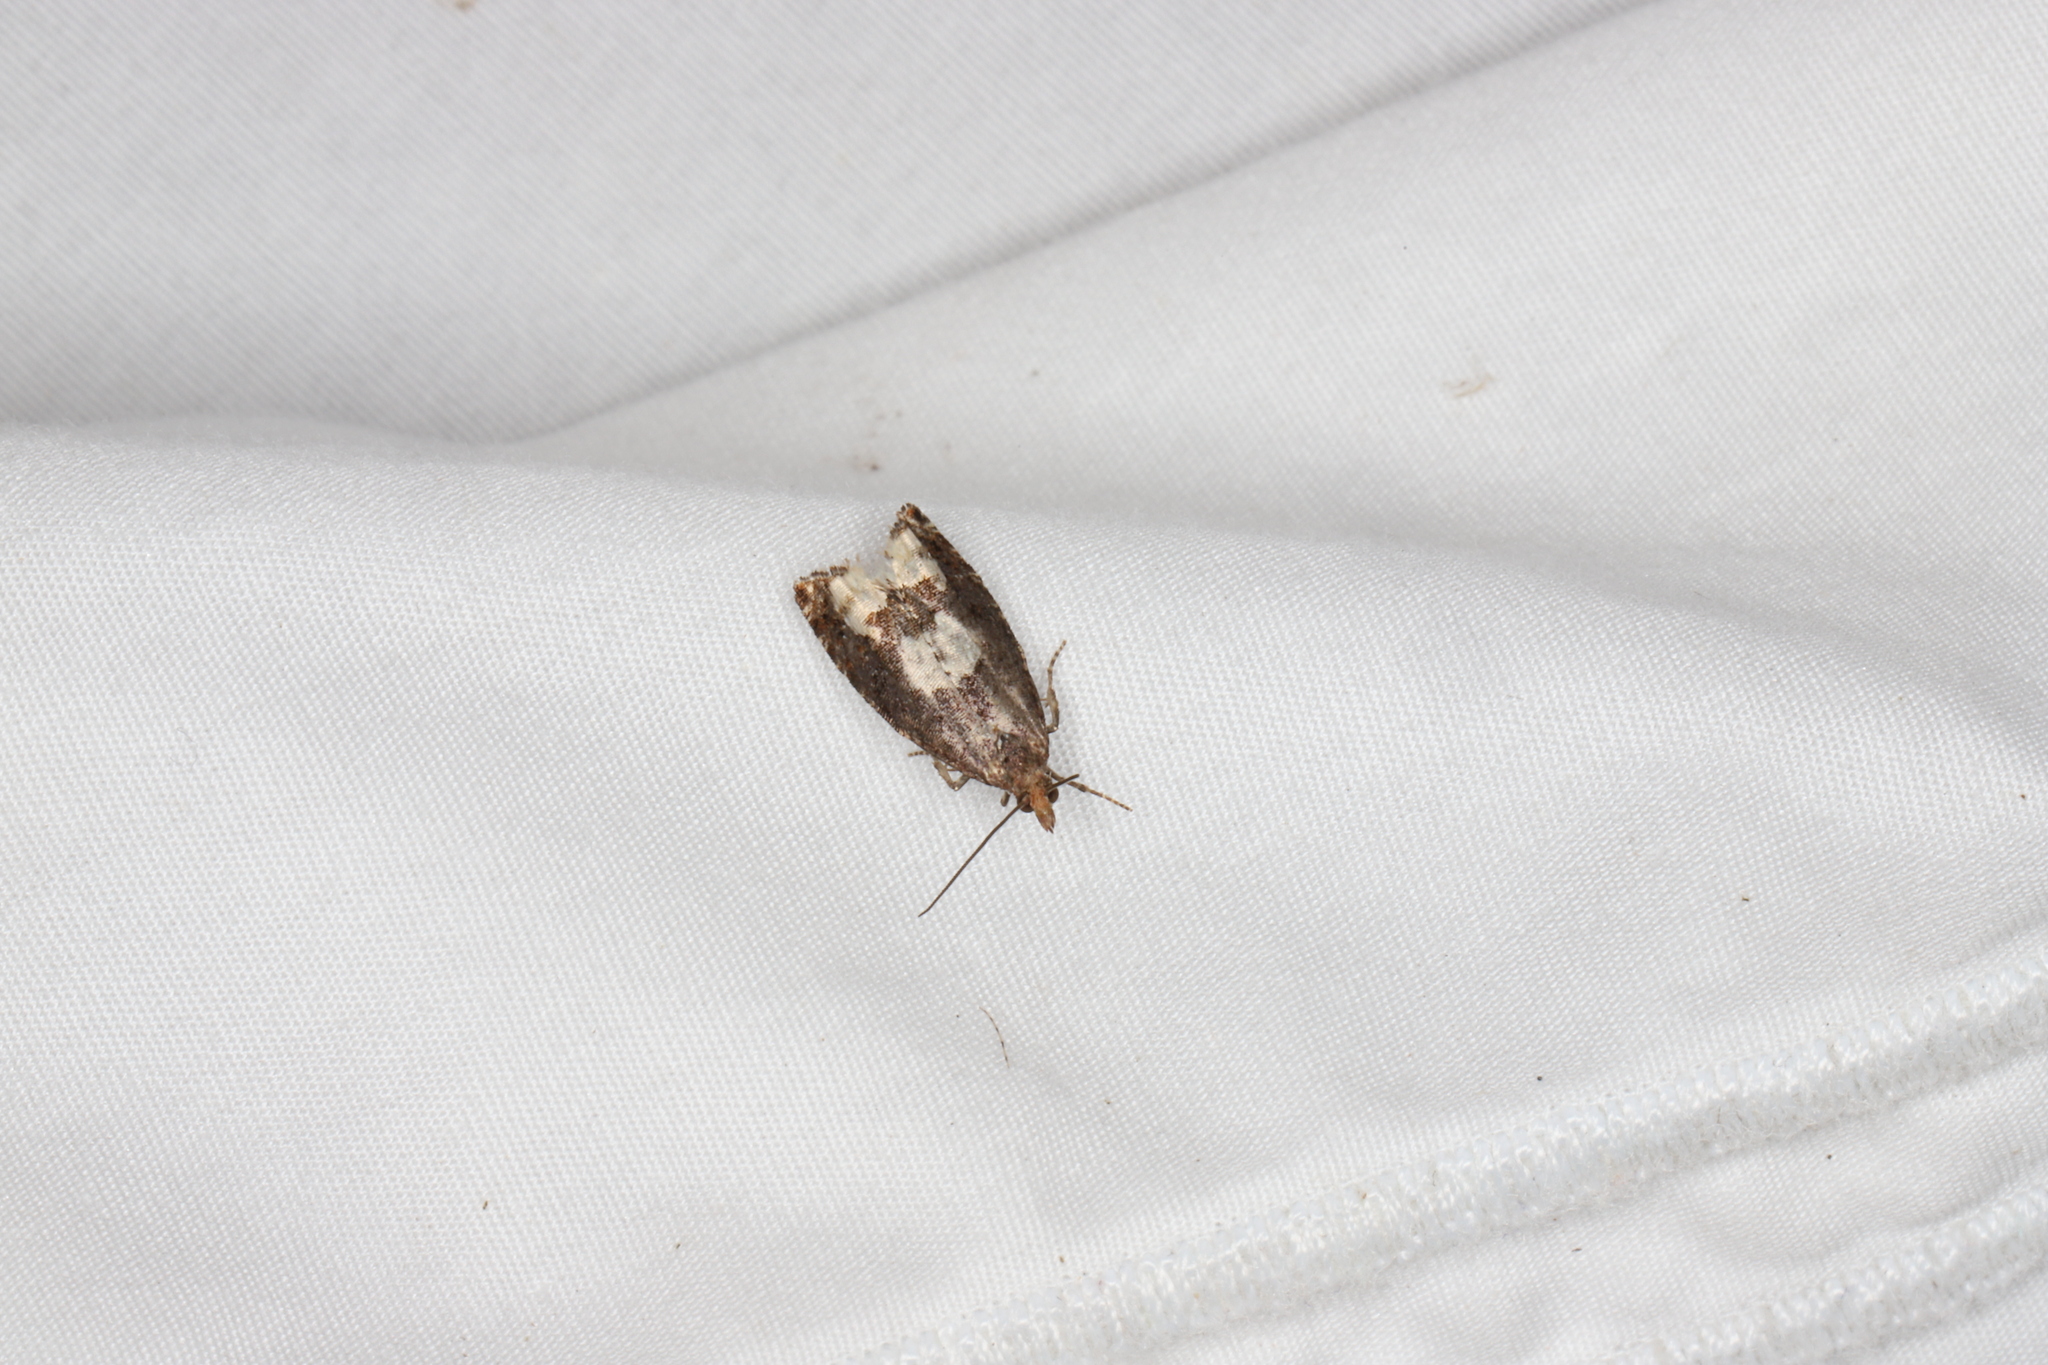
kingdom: Animalia
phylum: Arthropoda
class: Insecta
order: Lepidoptera
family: Tortricidae
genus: Epinotia
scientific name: Epinotia trigonella
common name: White-blotch bell
